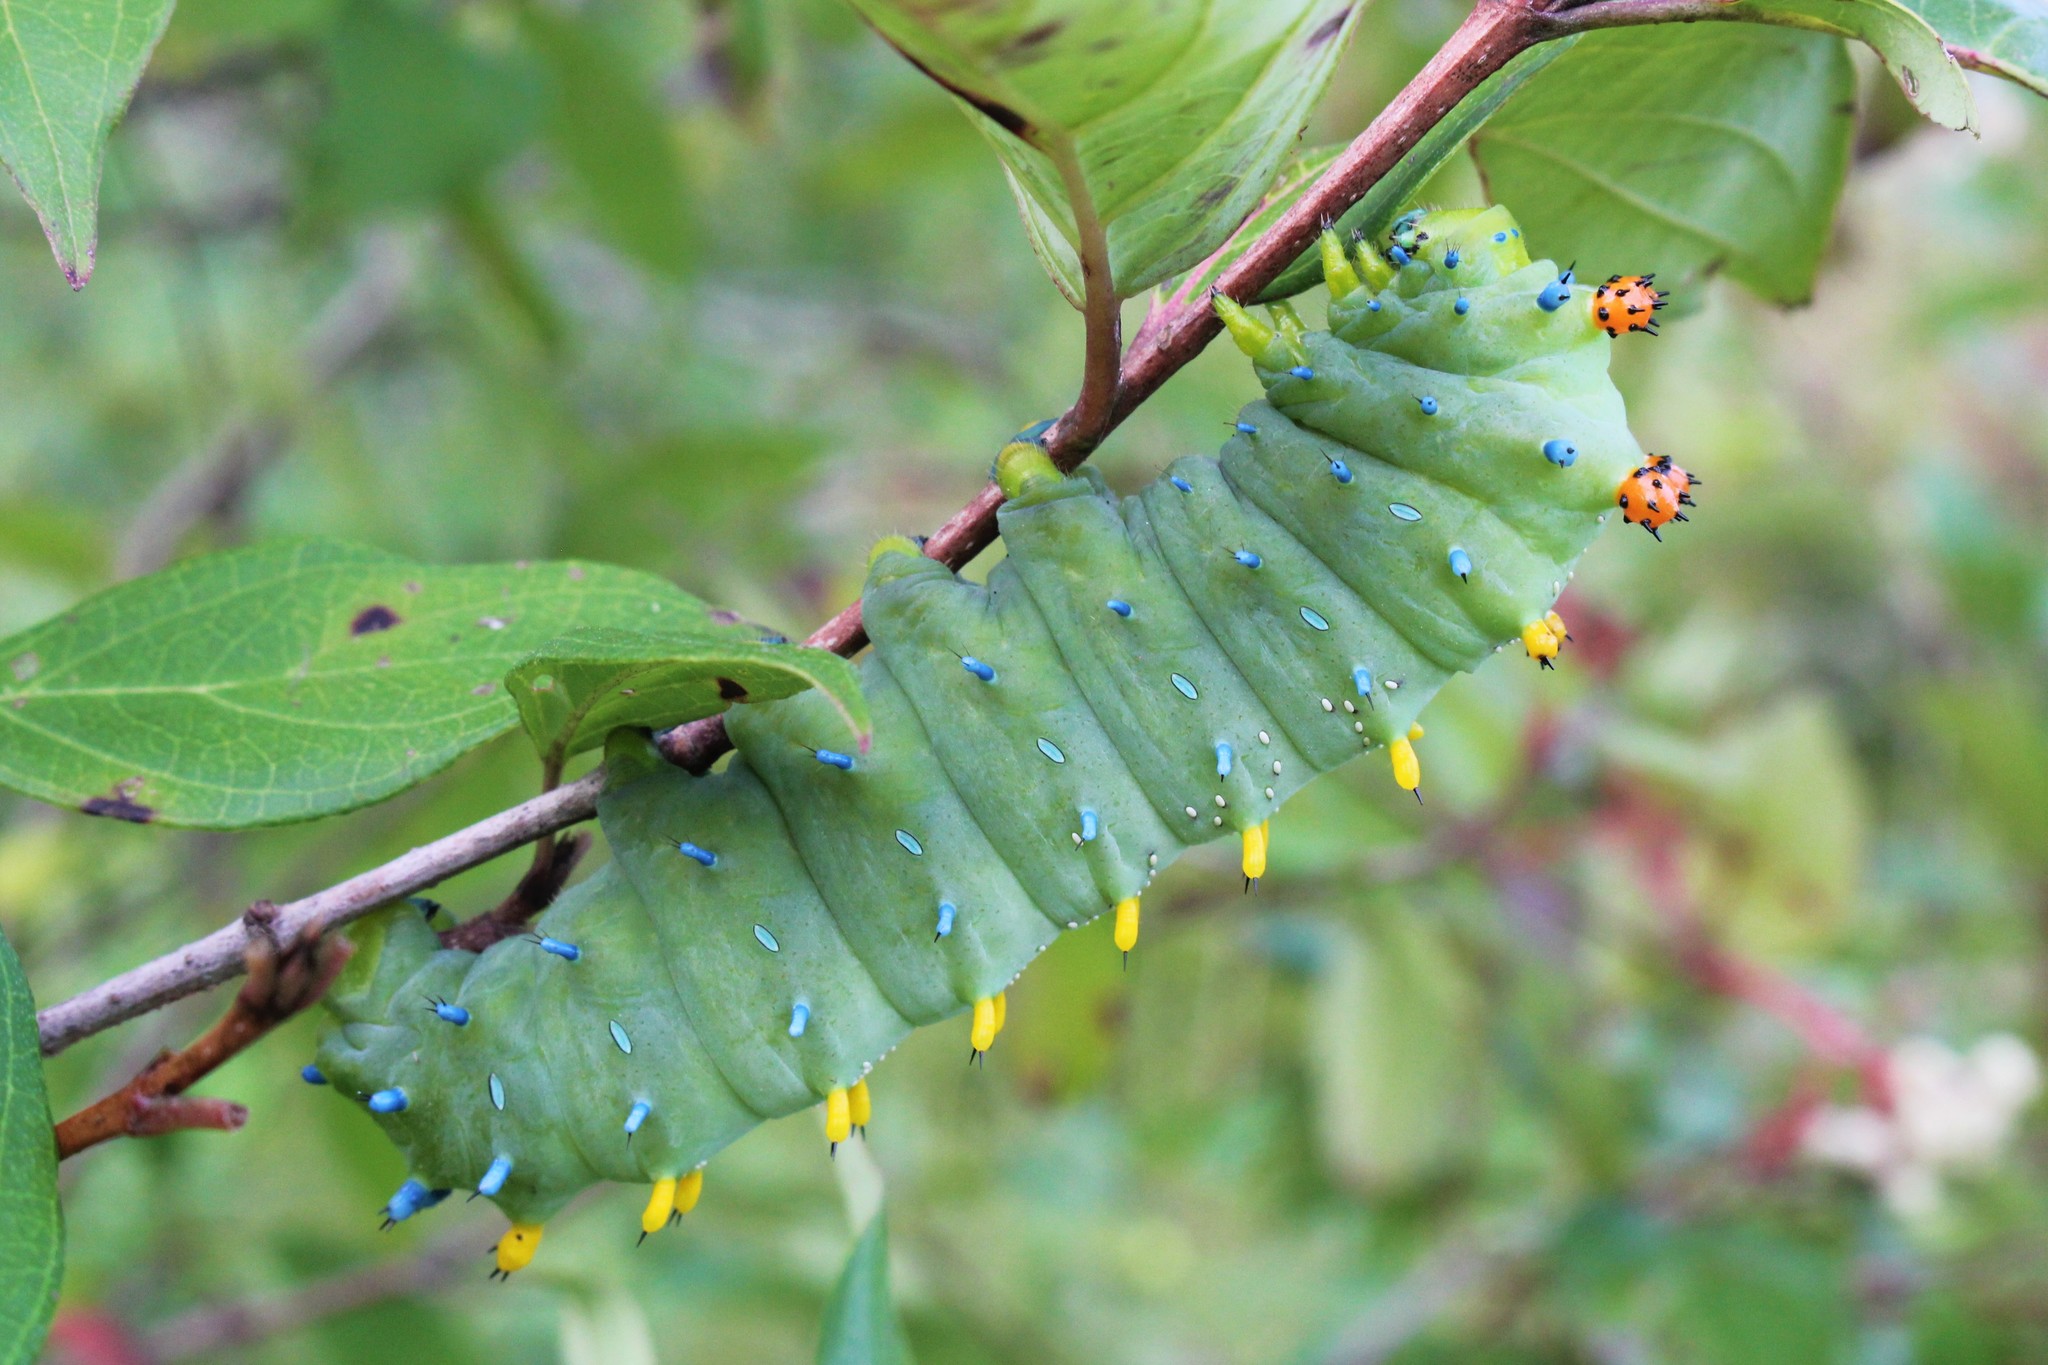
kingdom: Animalia
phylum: Arthropoda
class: Insecta
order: Lepidoptera
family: Saturniidae
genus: Hyalophora
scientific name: Hyalophora cecropia
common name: Cecropia silkmoth
